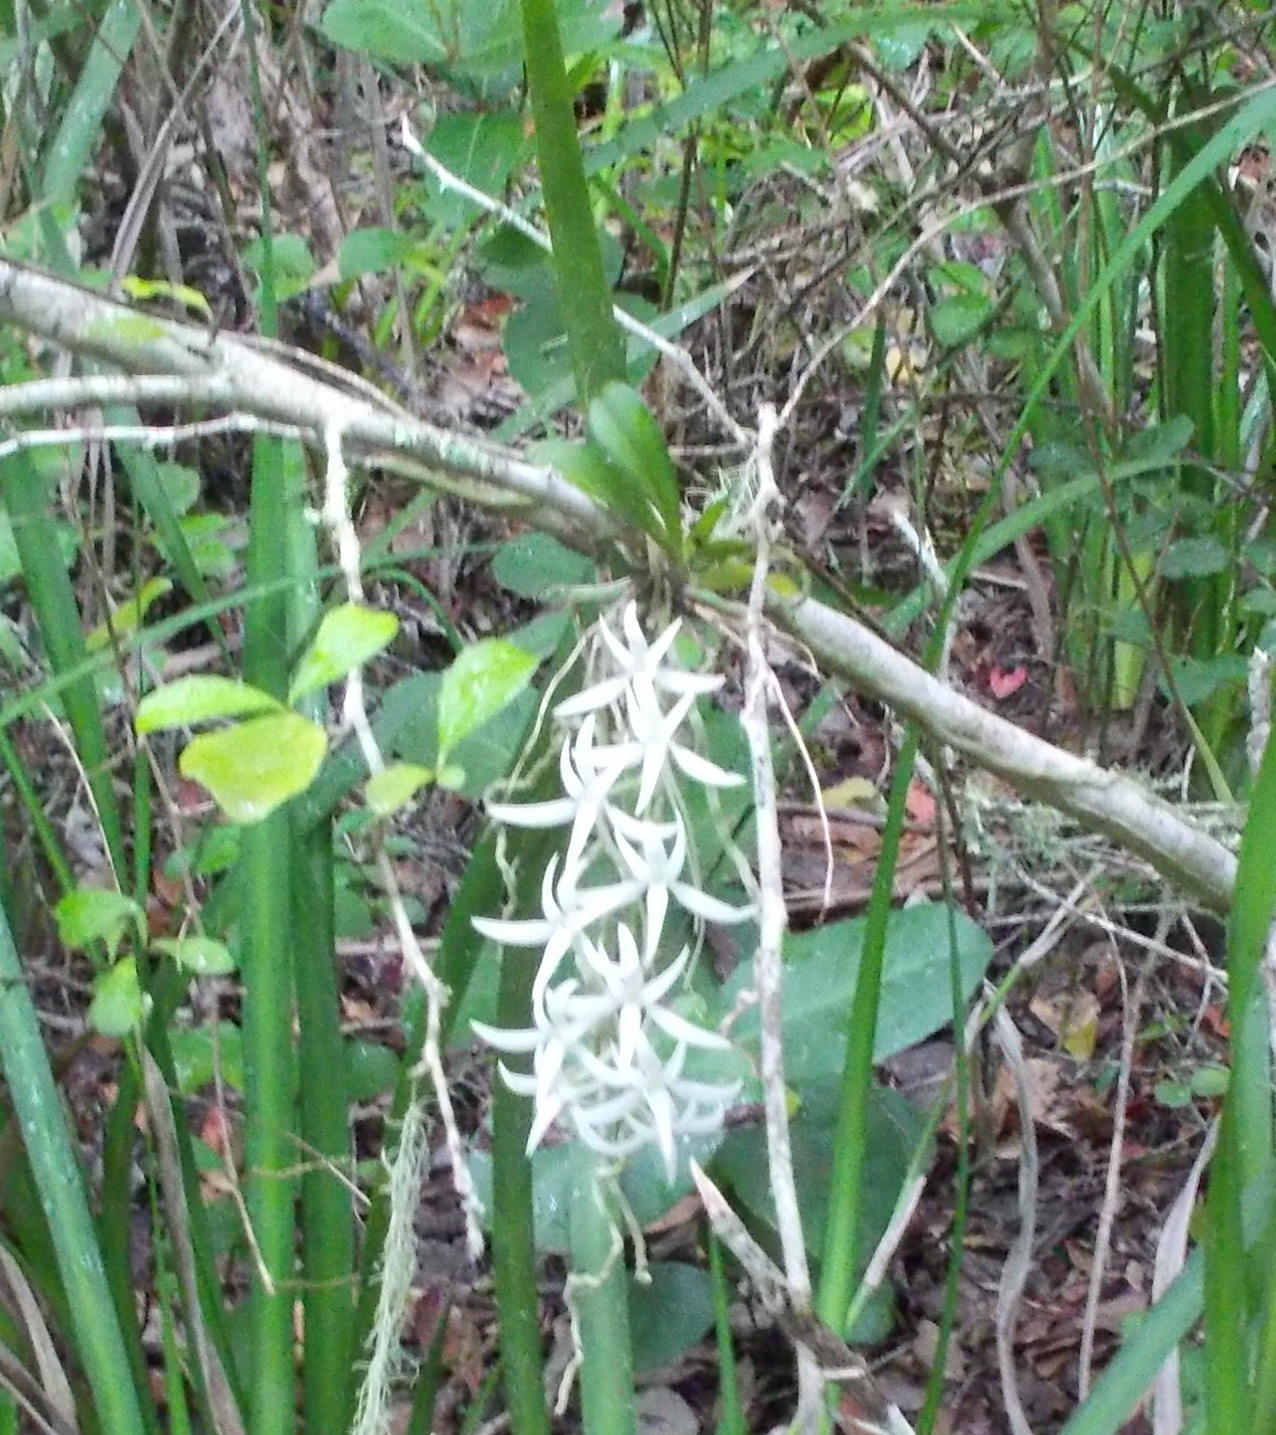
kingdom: Plantae
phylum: Tracheophyta
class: Liliopsida
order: Asparagales
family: Orchidaceae
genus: Mystacidium
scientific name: Mystacidium capense
